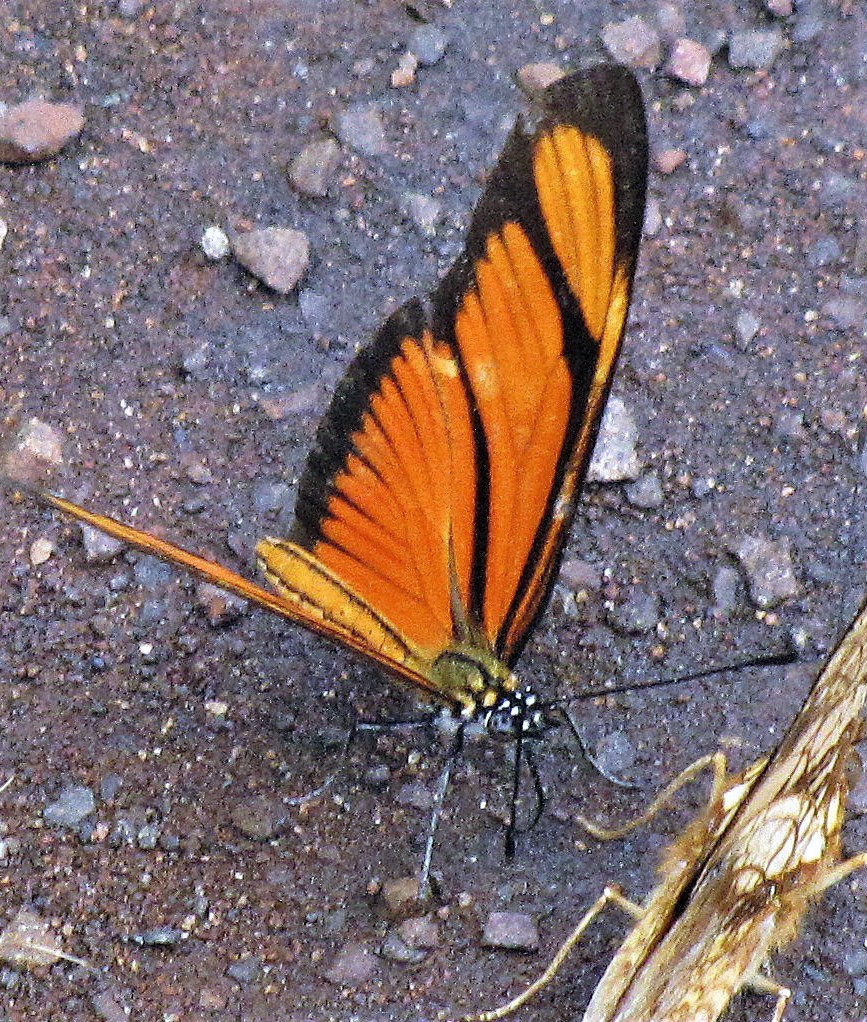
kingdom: Animalia
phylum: Arthropoda
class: Insecta
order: Lepidoptera
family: Nymphalidae
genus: Heliconius
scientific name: Heliconius aliphera
